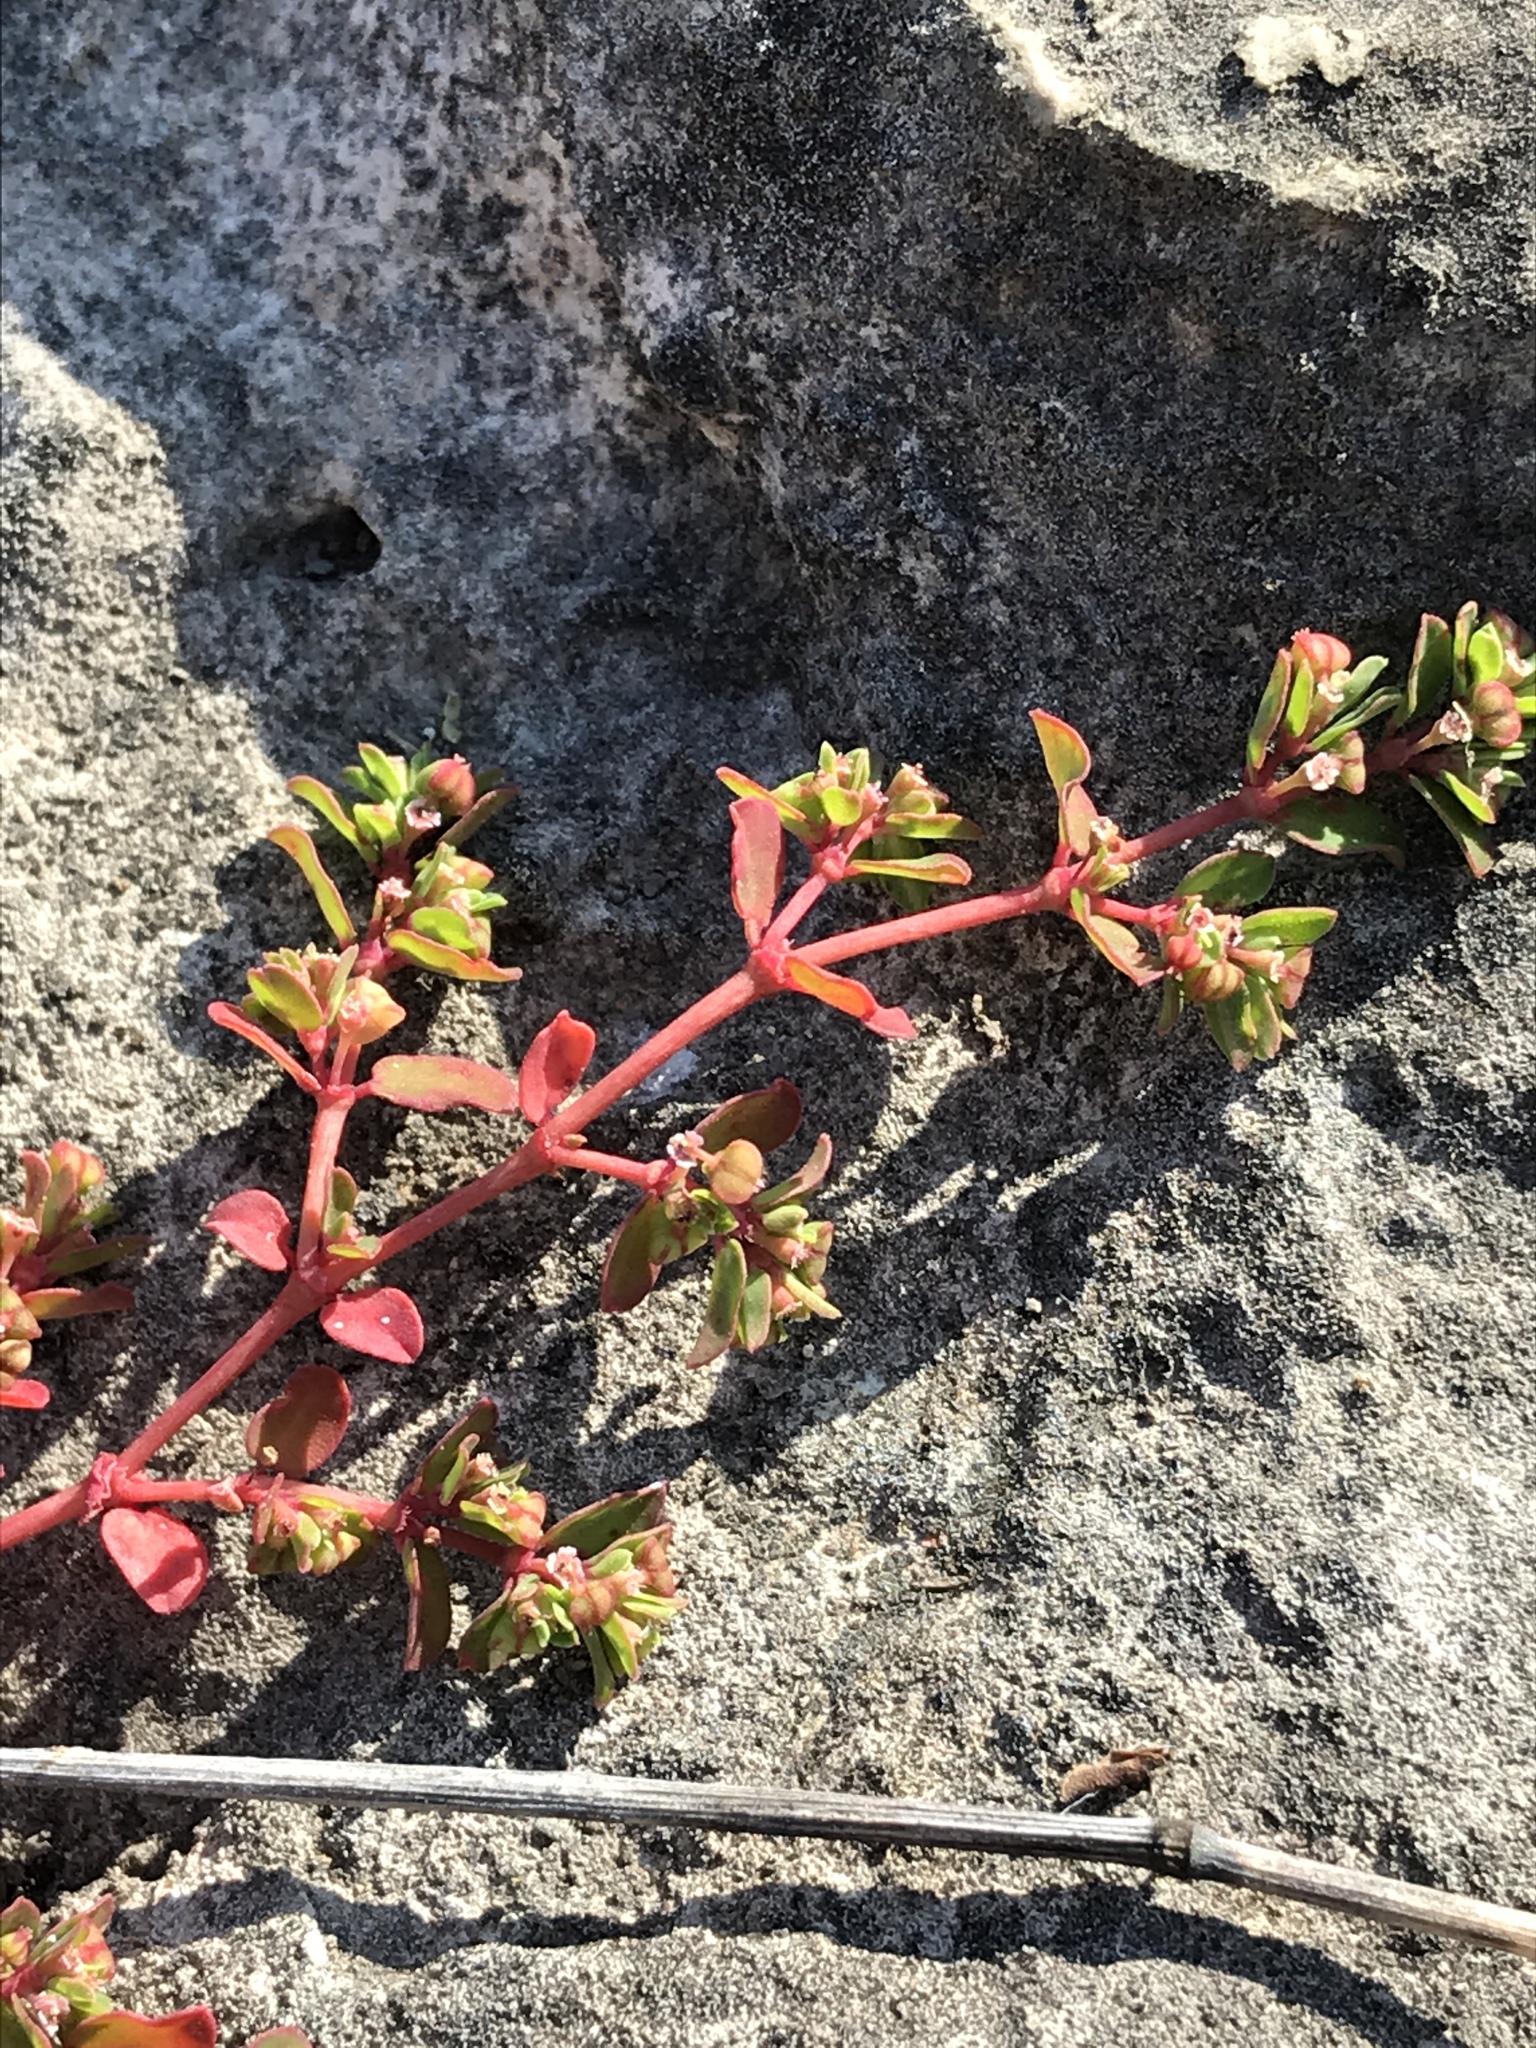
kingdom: Plantae
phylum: Tracheophyta
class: Magnoliopsida
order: Malpighiales
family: Euphorbiaceae
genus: Euphorbia
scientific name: Euphorbia serpens
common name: Matted sandmat
